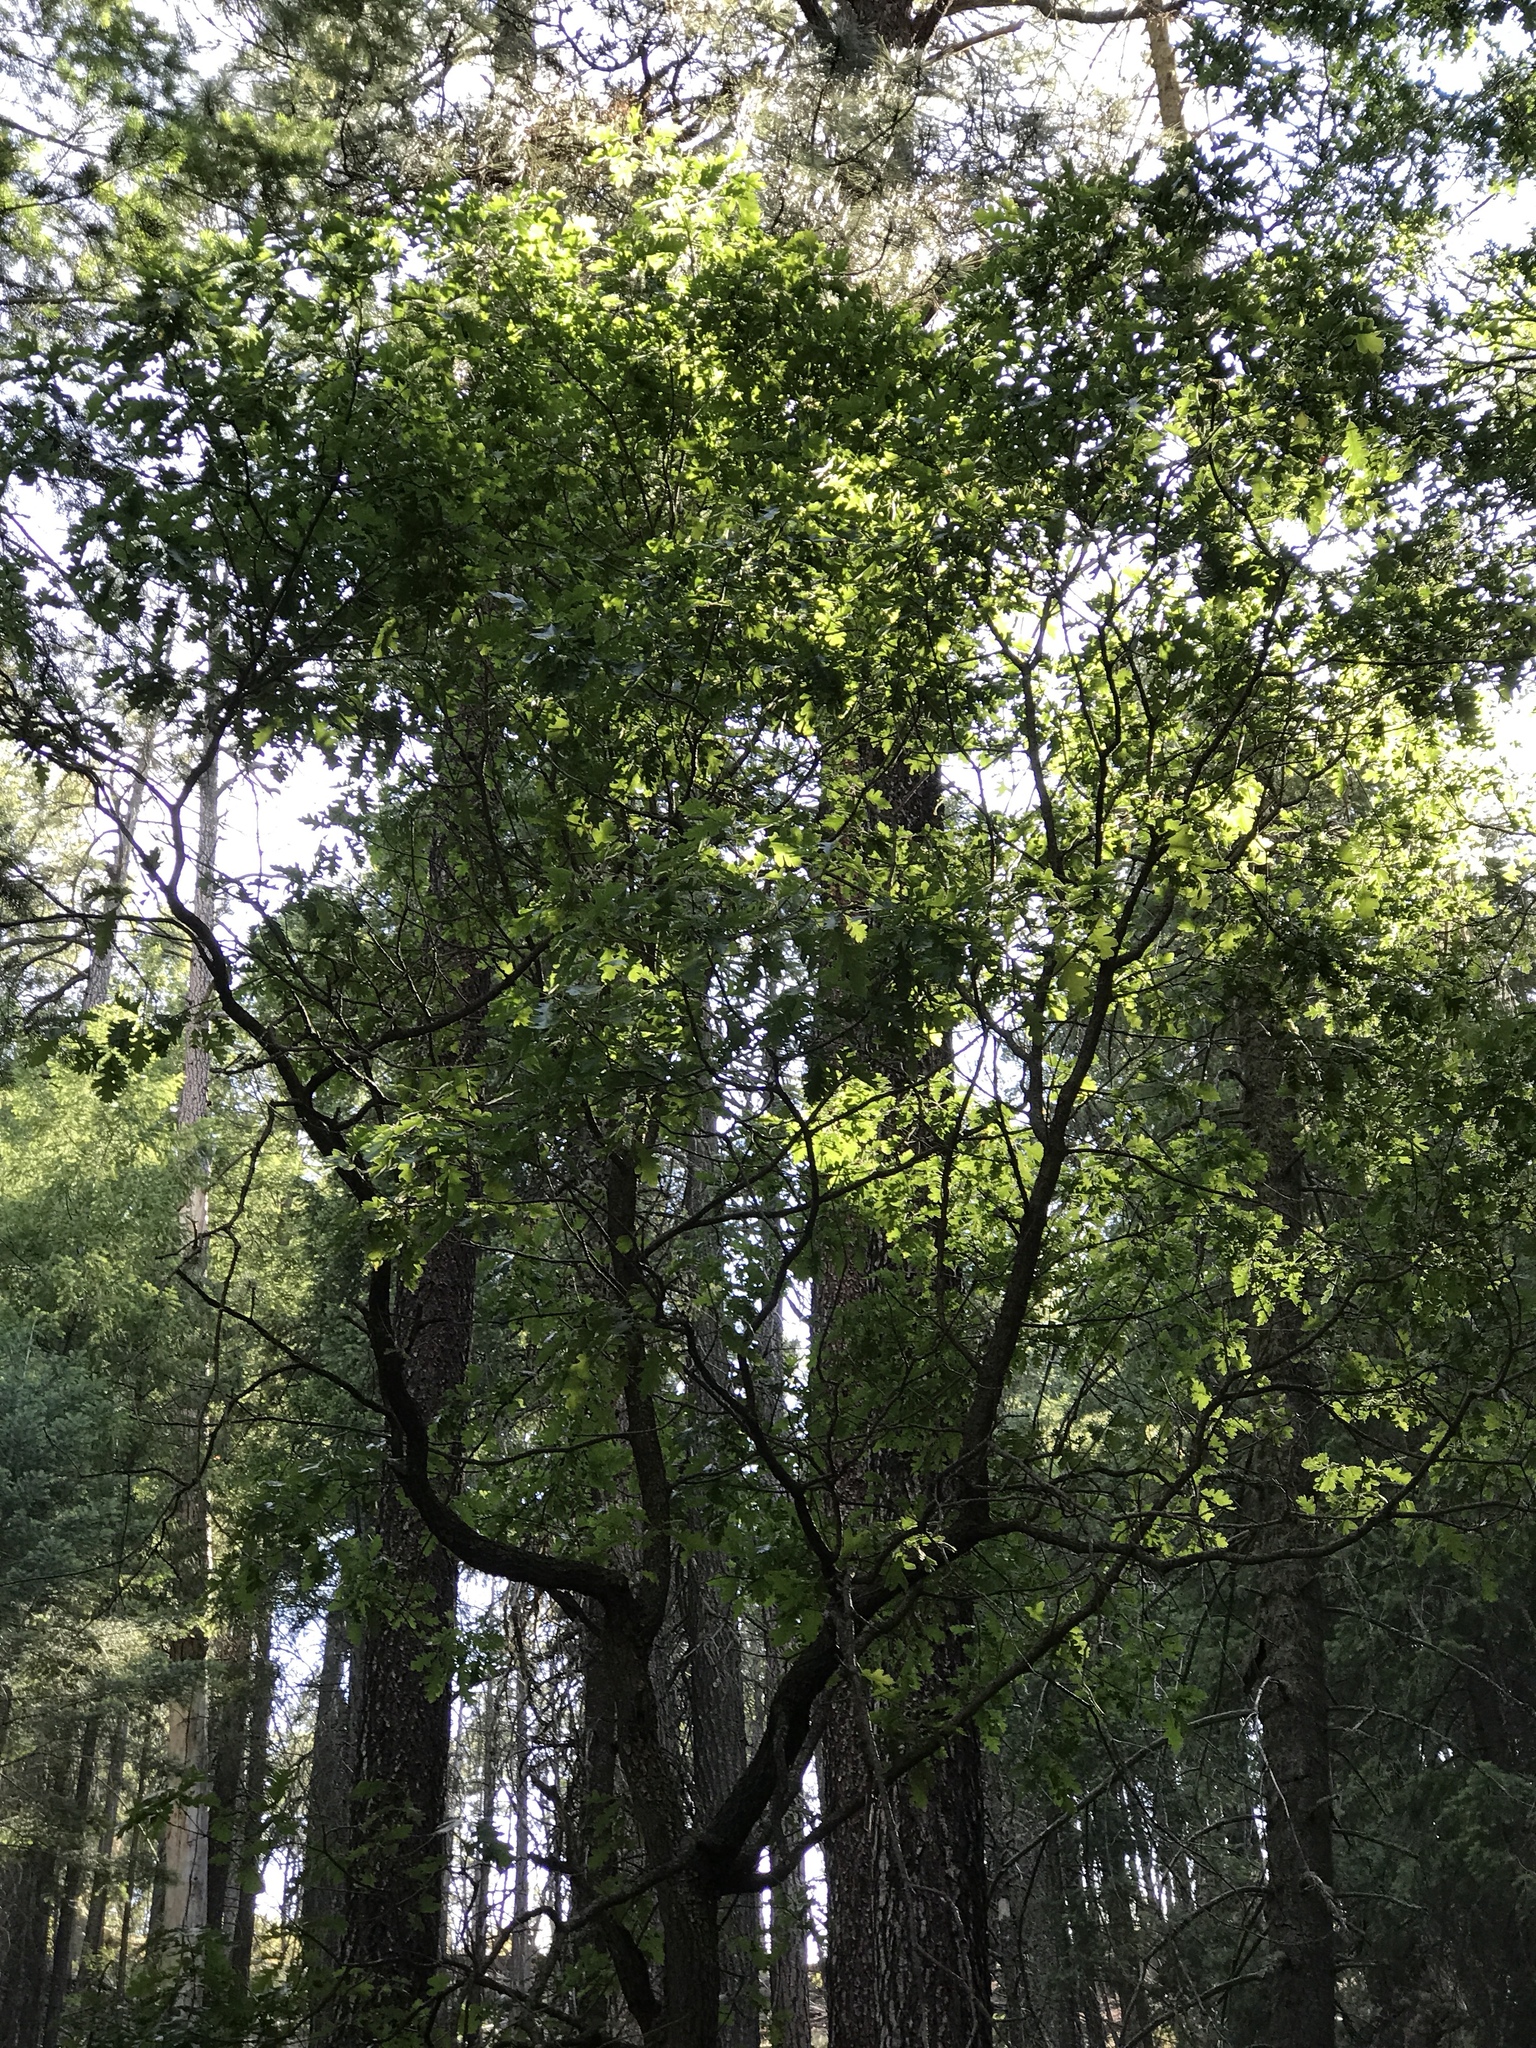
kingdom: Plantae
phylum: Tracheophyta
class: Magnoliopsida
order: Fagales
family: Fagaceae
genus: Quercus
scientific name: Quercus gambelii
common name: Gambel oak
